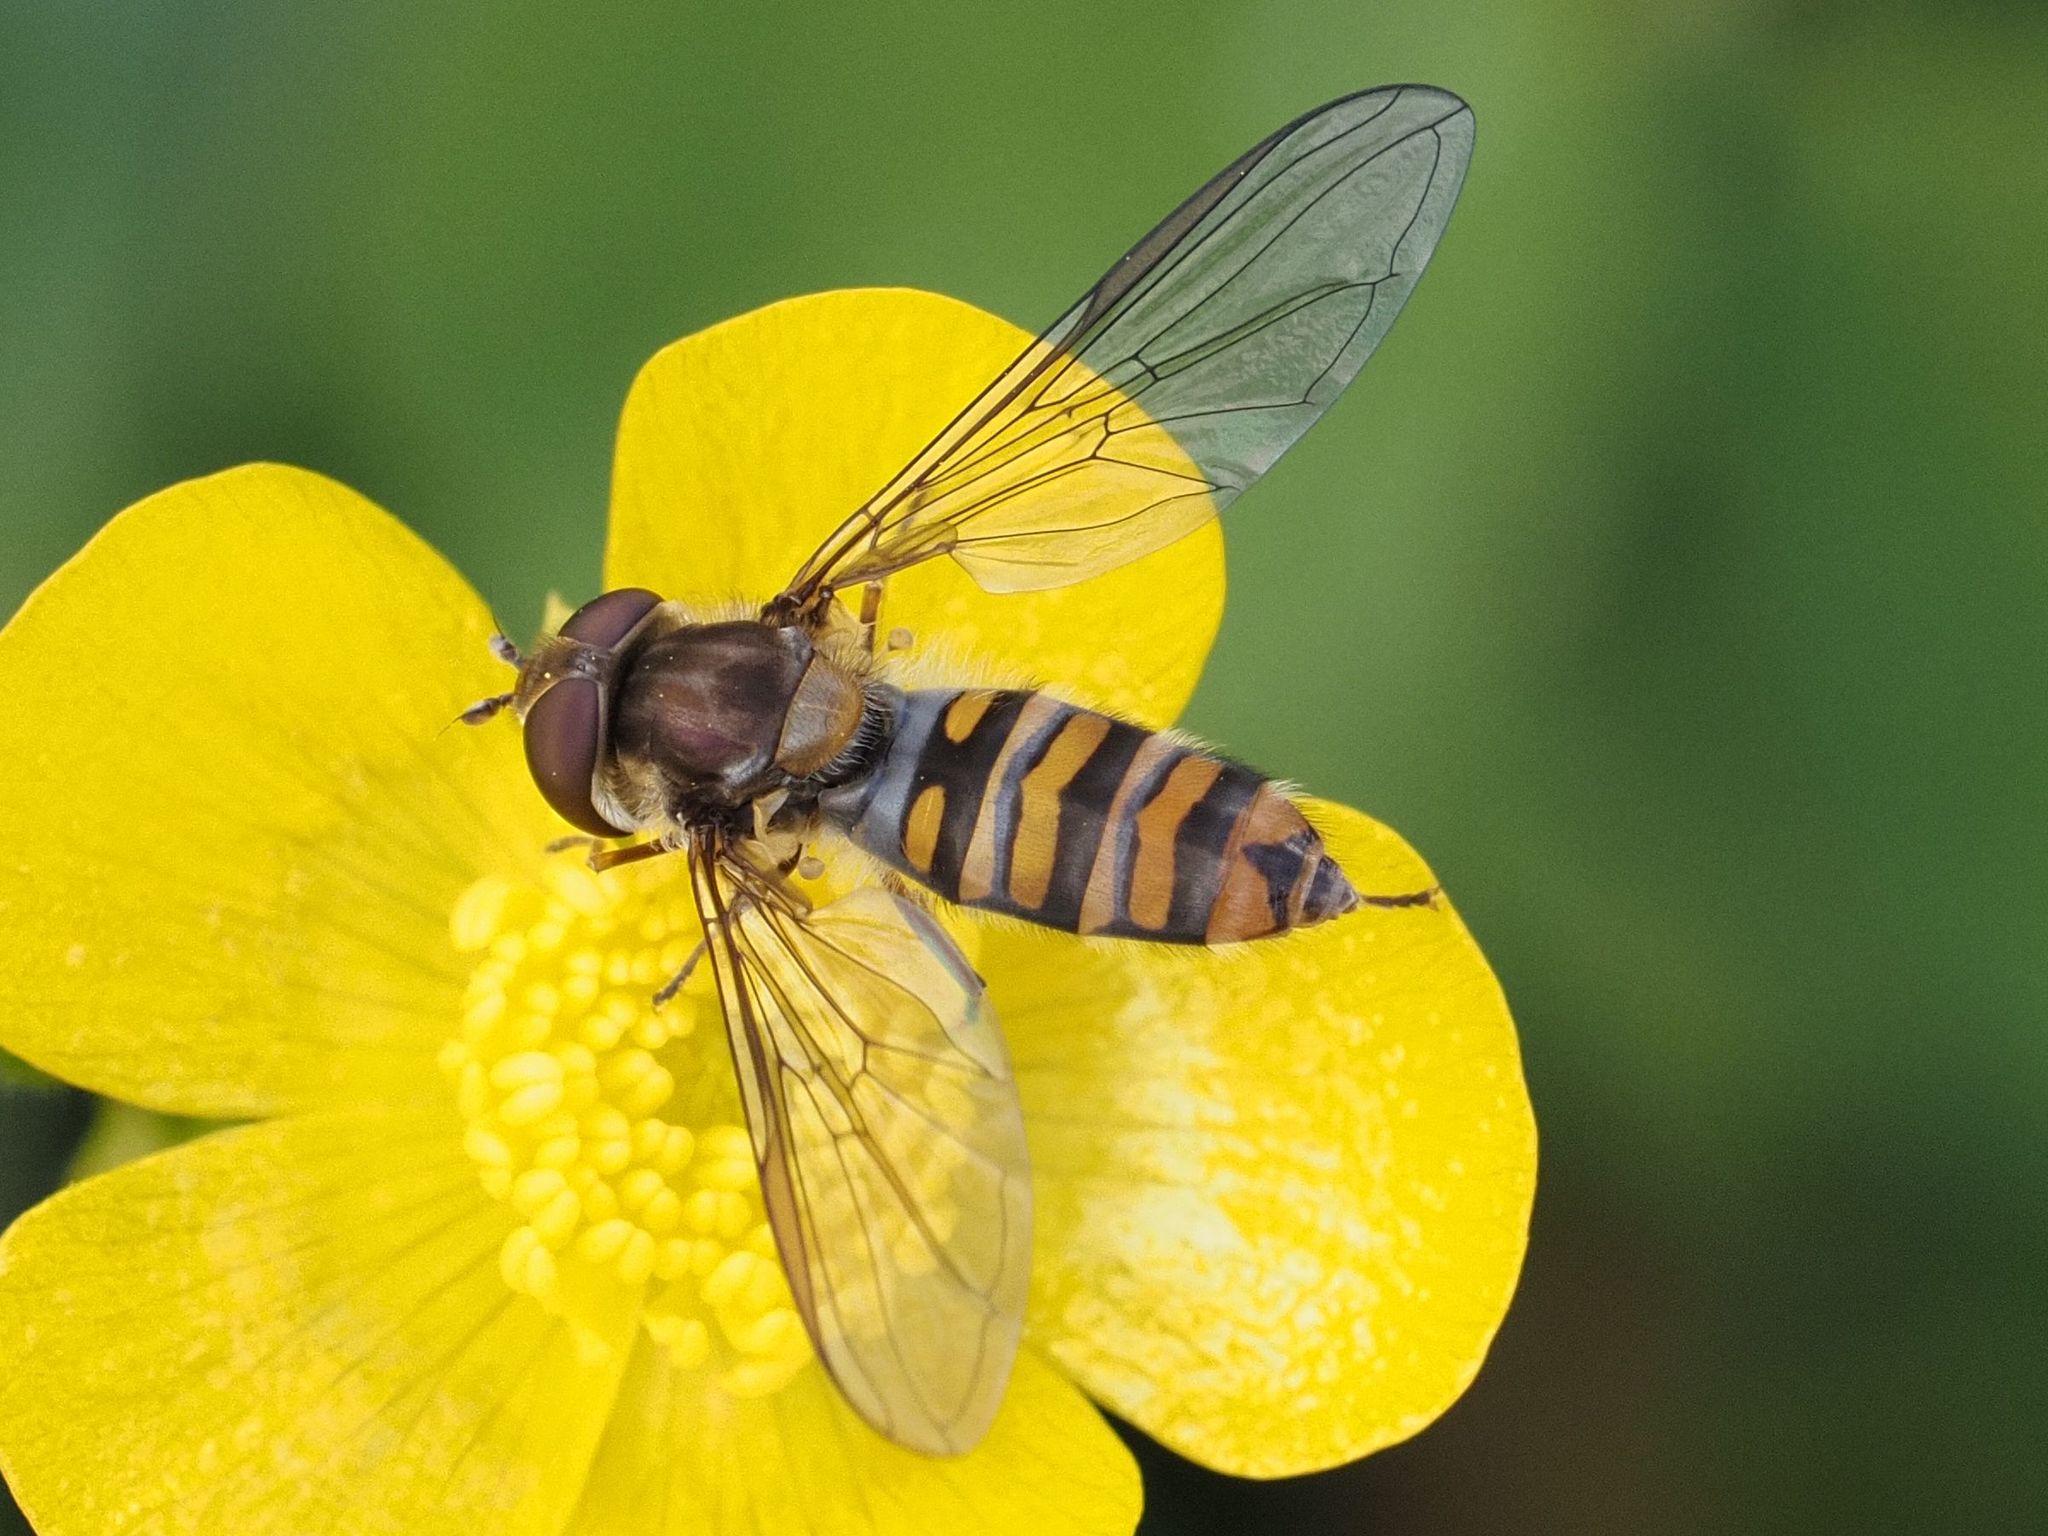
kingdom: Animalia
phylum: Arthropoda
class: Insecta
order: Diptera
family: Syrphidae
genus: Episyrphus
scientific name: Episyrphus balteatus
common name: Marmalade hoverfly
